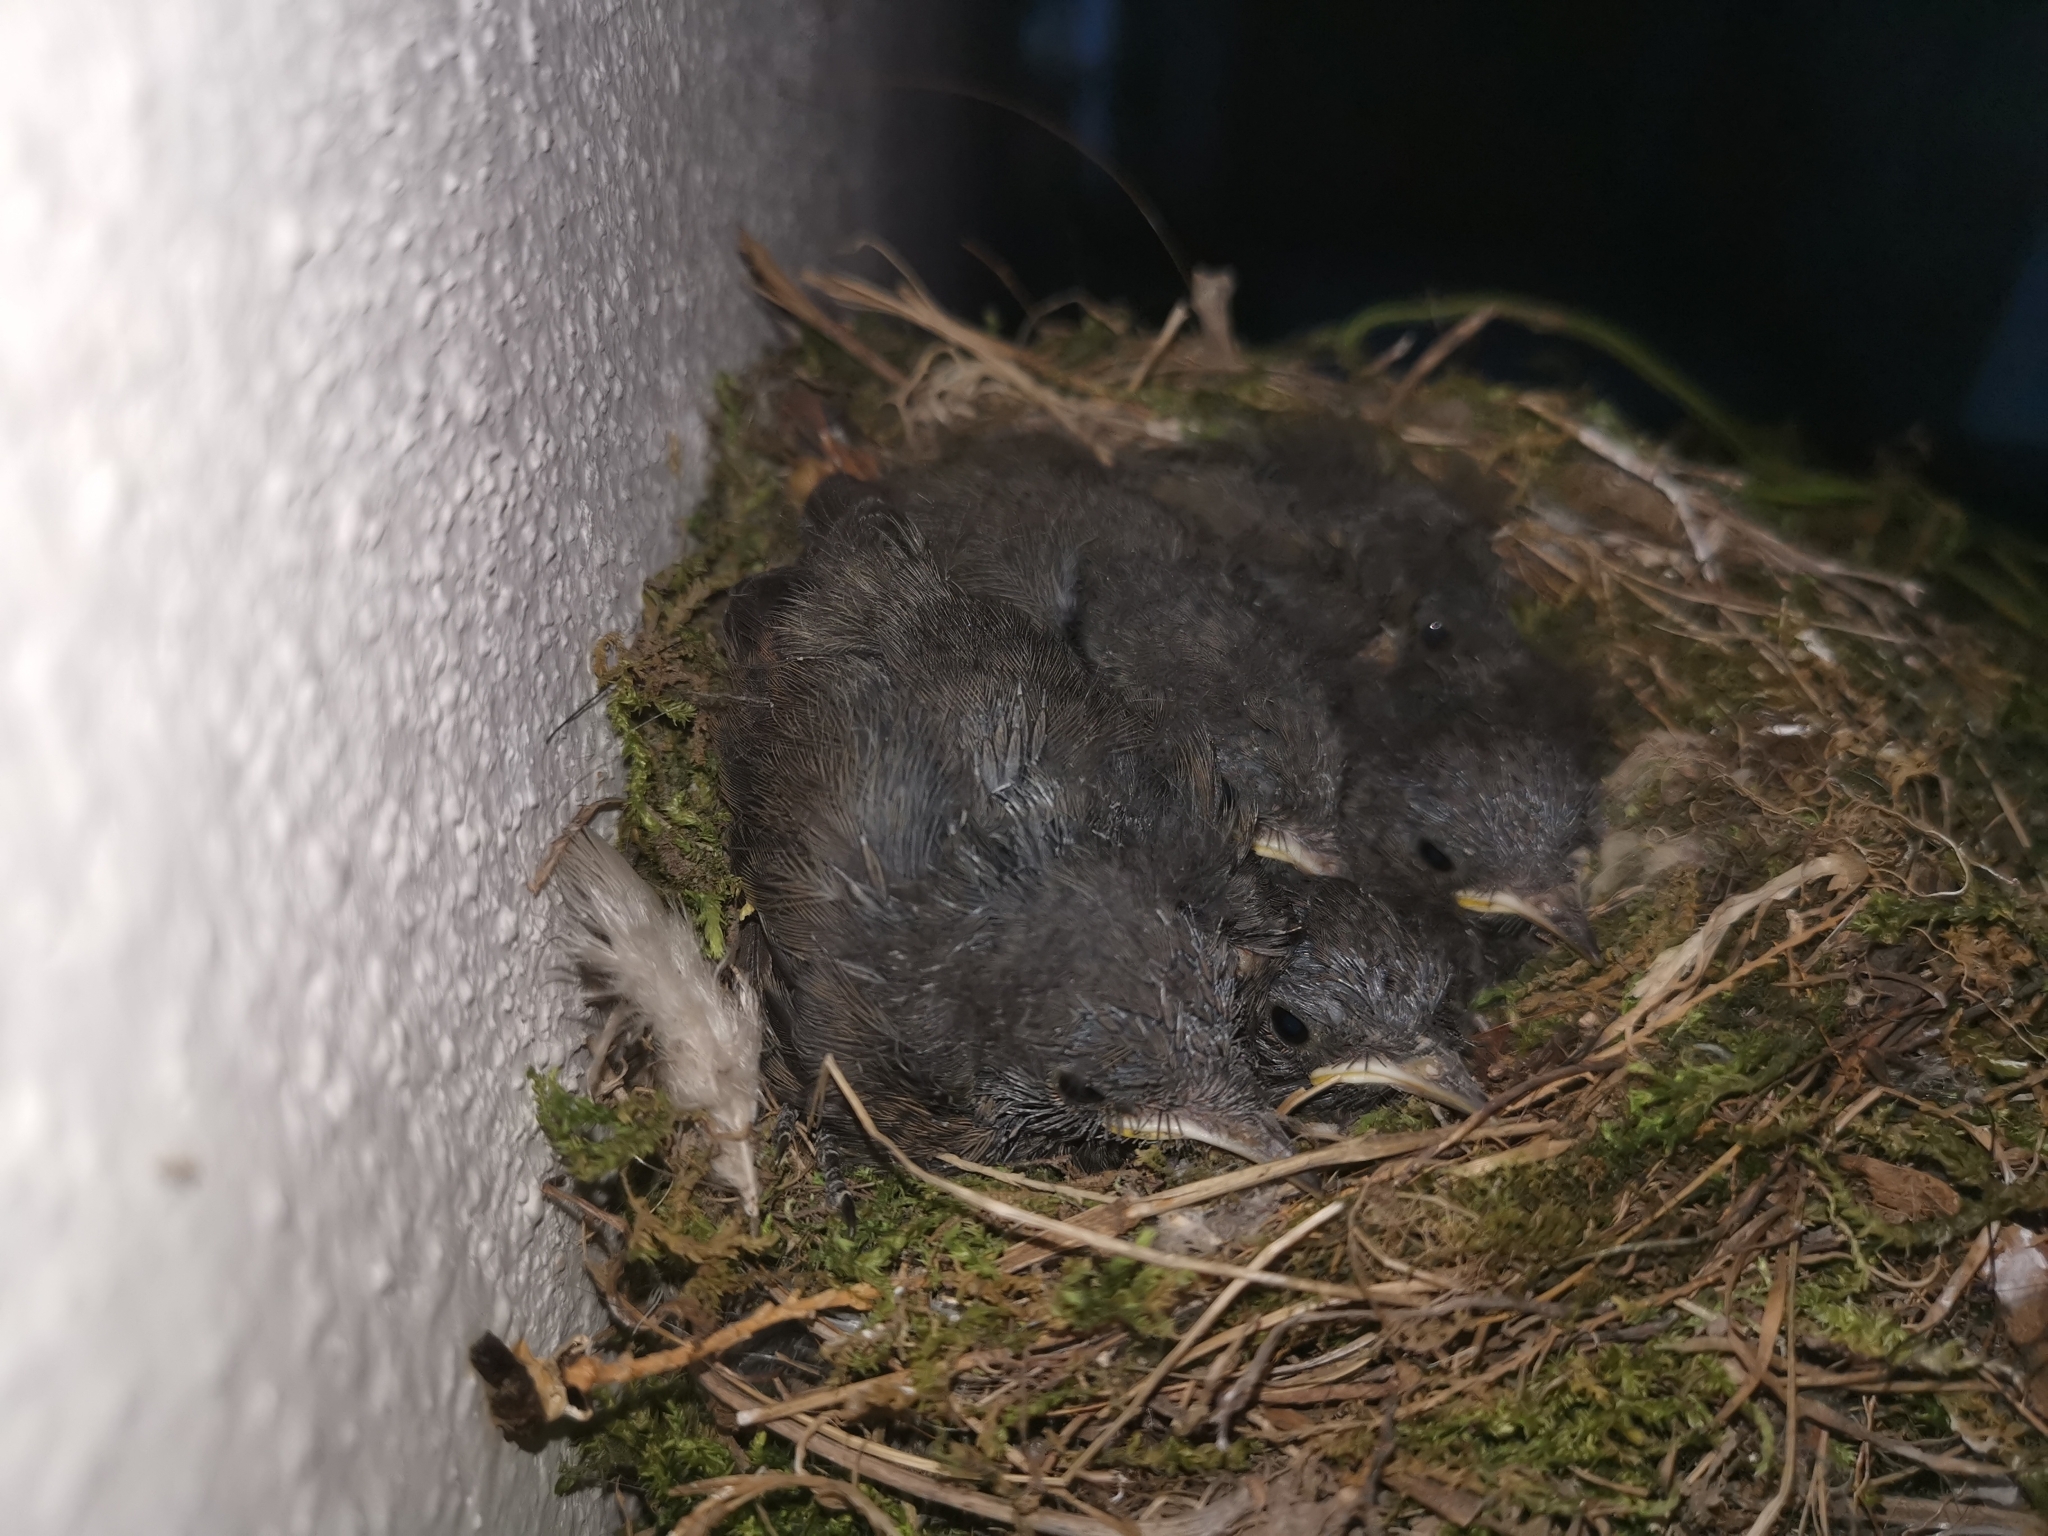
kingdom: Animalia
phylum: Chordata
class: Aves
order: Passeriformes
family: Muscicapidae
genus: Phoenicurus
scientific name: Phoenicurus ochruros
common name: Black redstart
